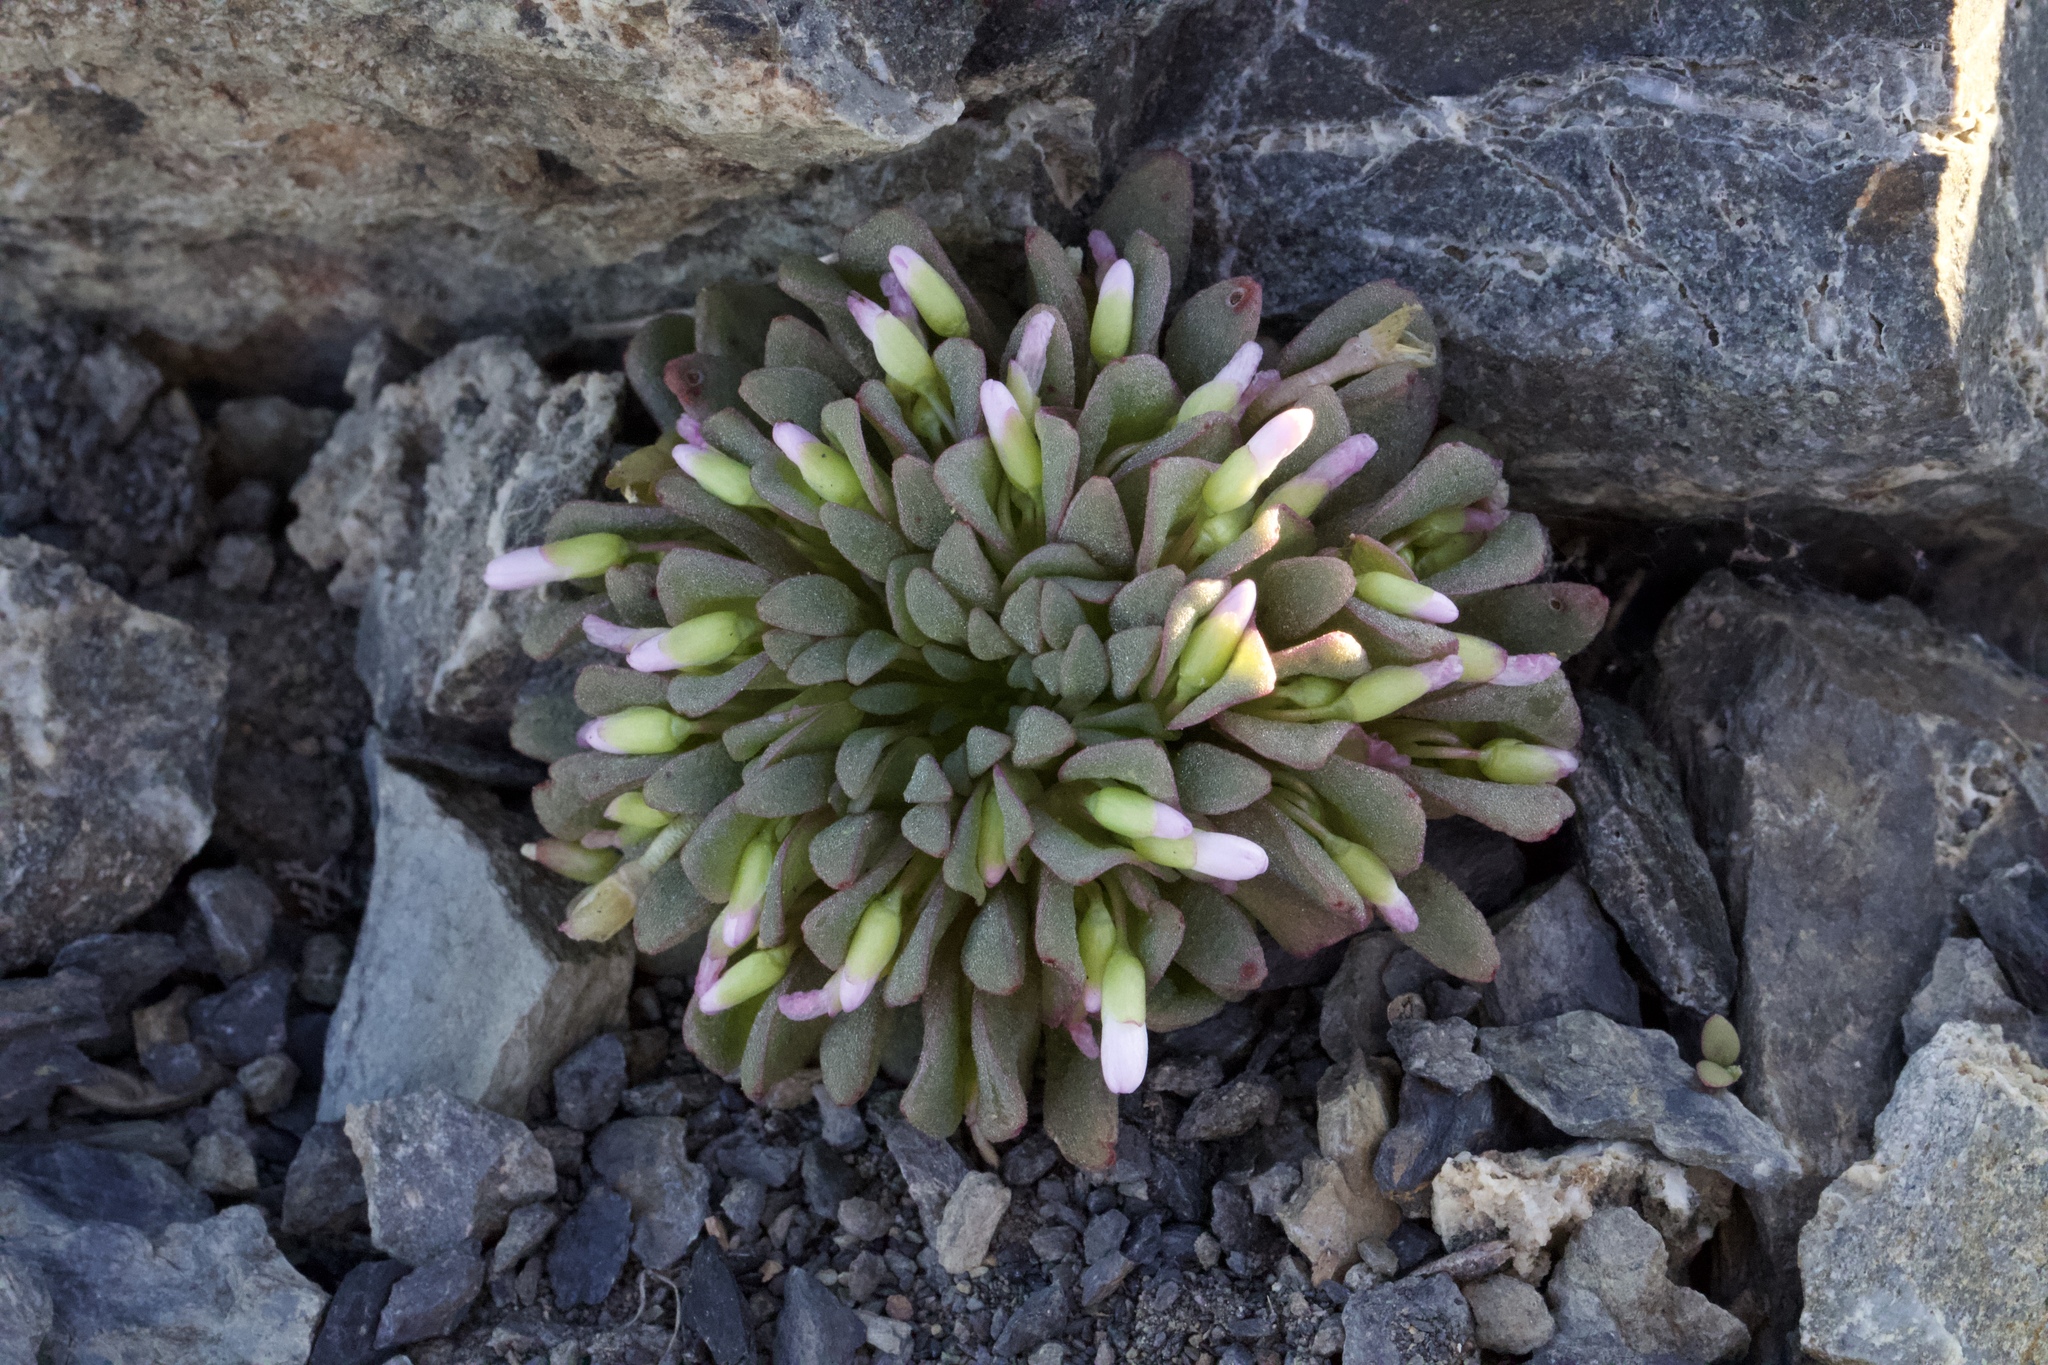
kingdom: Plantae
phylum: Tracheophyta
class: Magnoliopsida
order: Caryophyllales
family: Montiaceae
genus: Claytonia
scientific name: Claytonia saxosa
